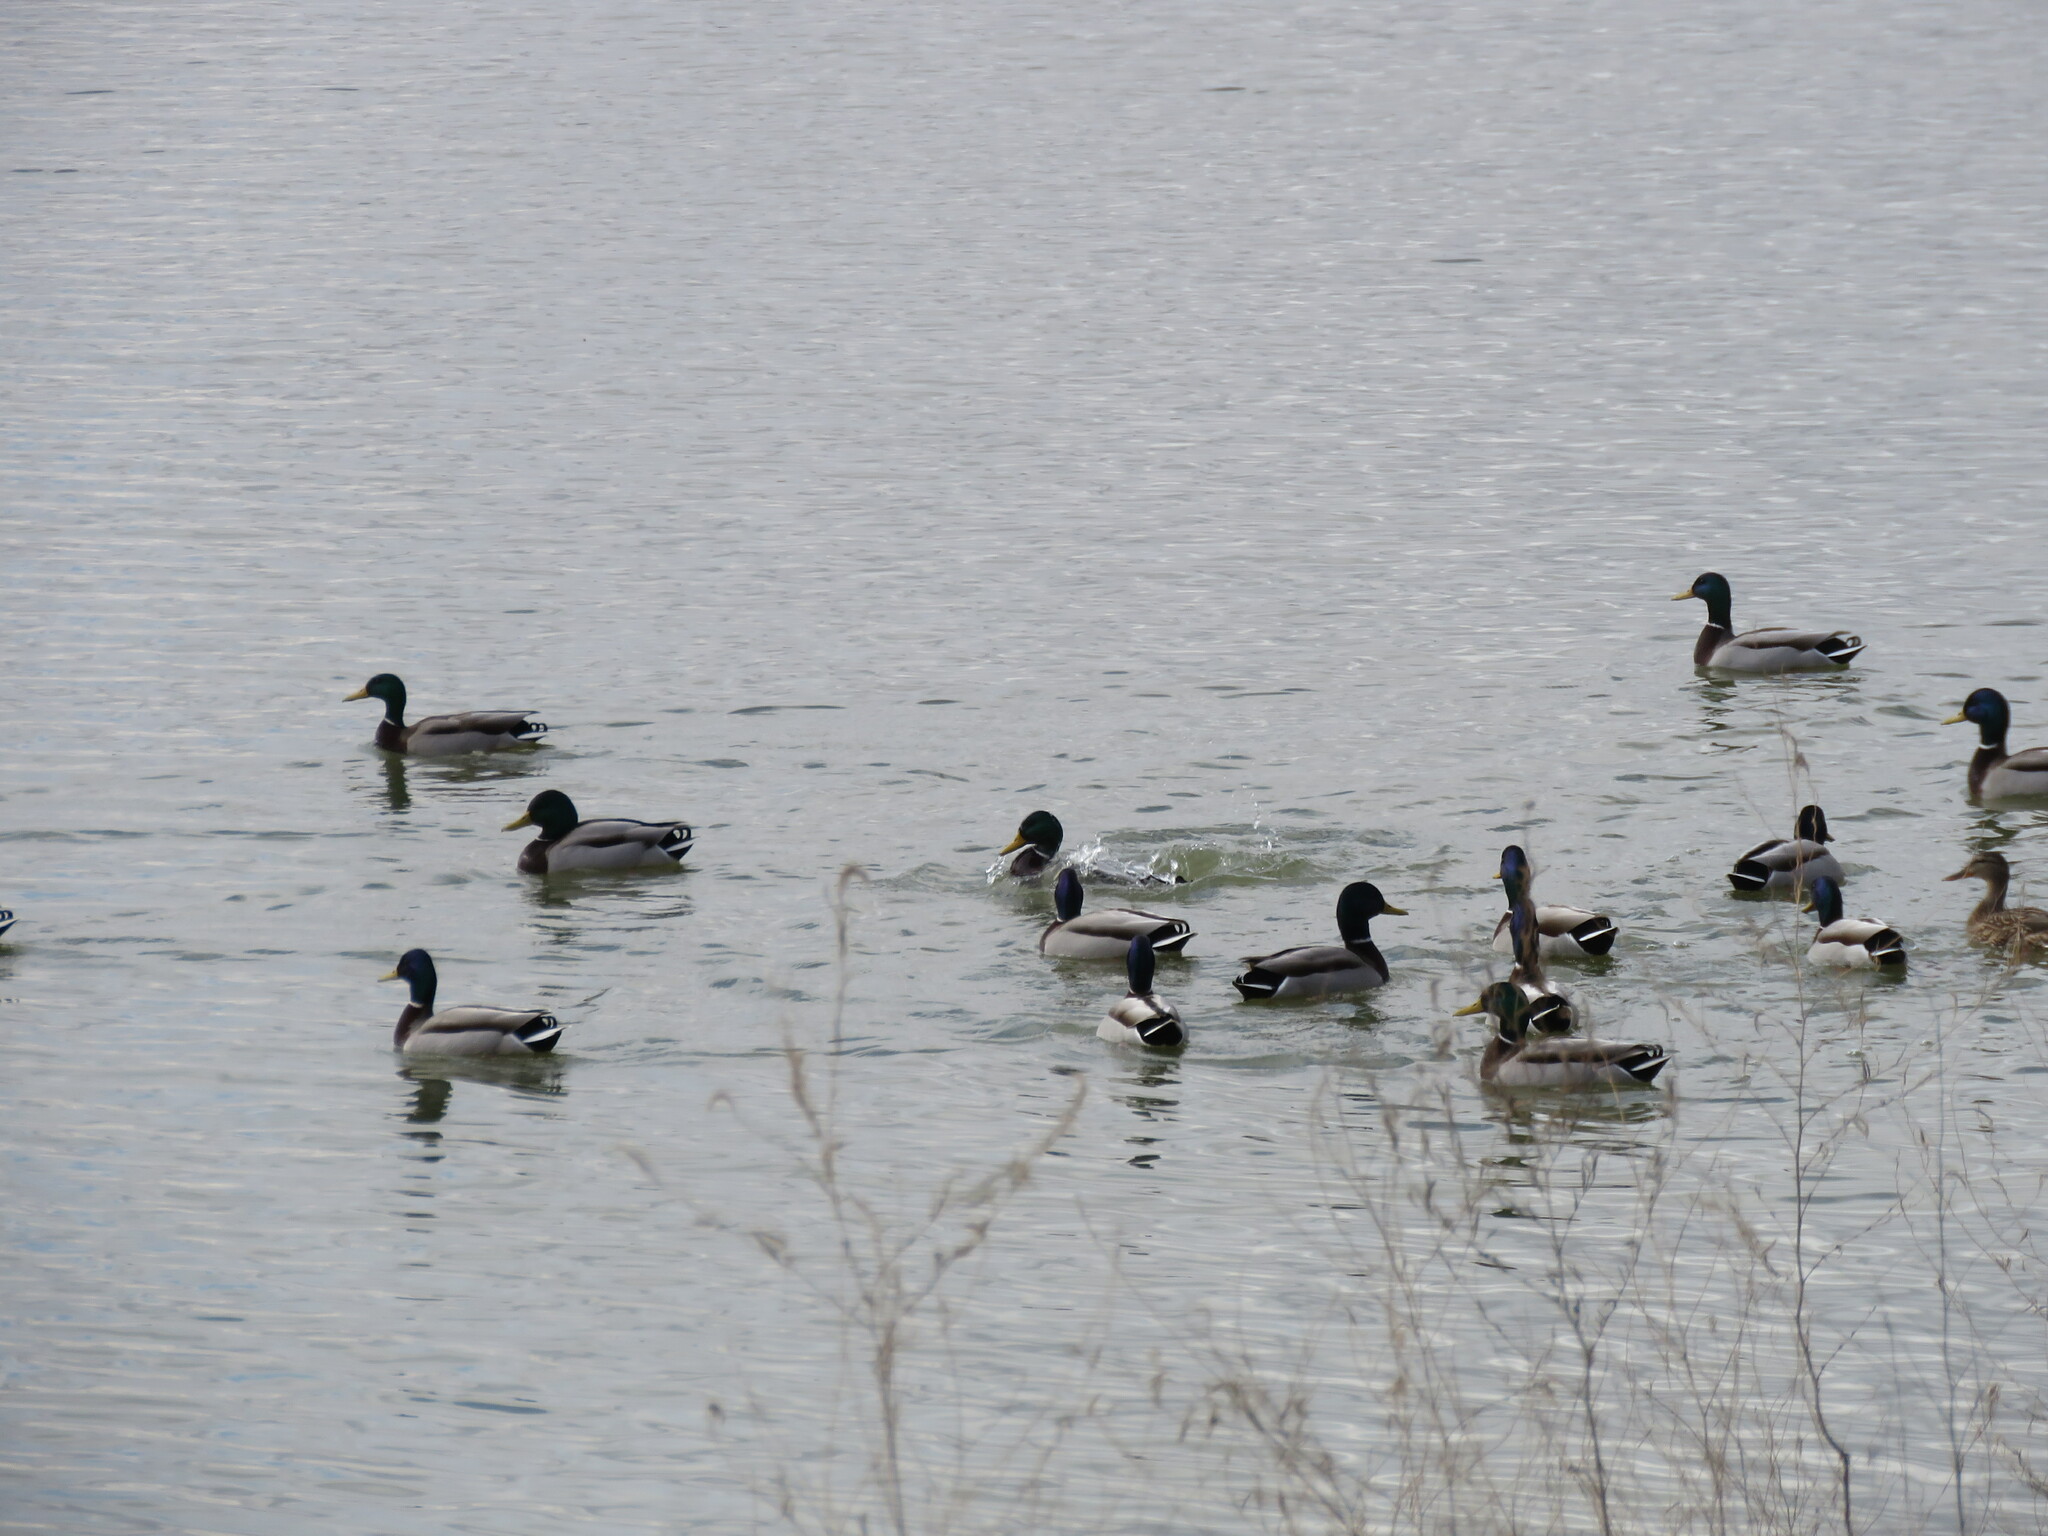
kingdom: Animalia
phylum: Chordata
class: Aves
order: Anseriformes
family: Anatidae
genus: Anas
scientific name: Anas platyrhynchos
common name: Mallard
